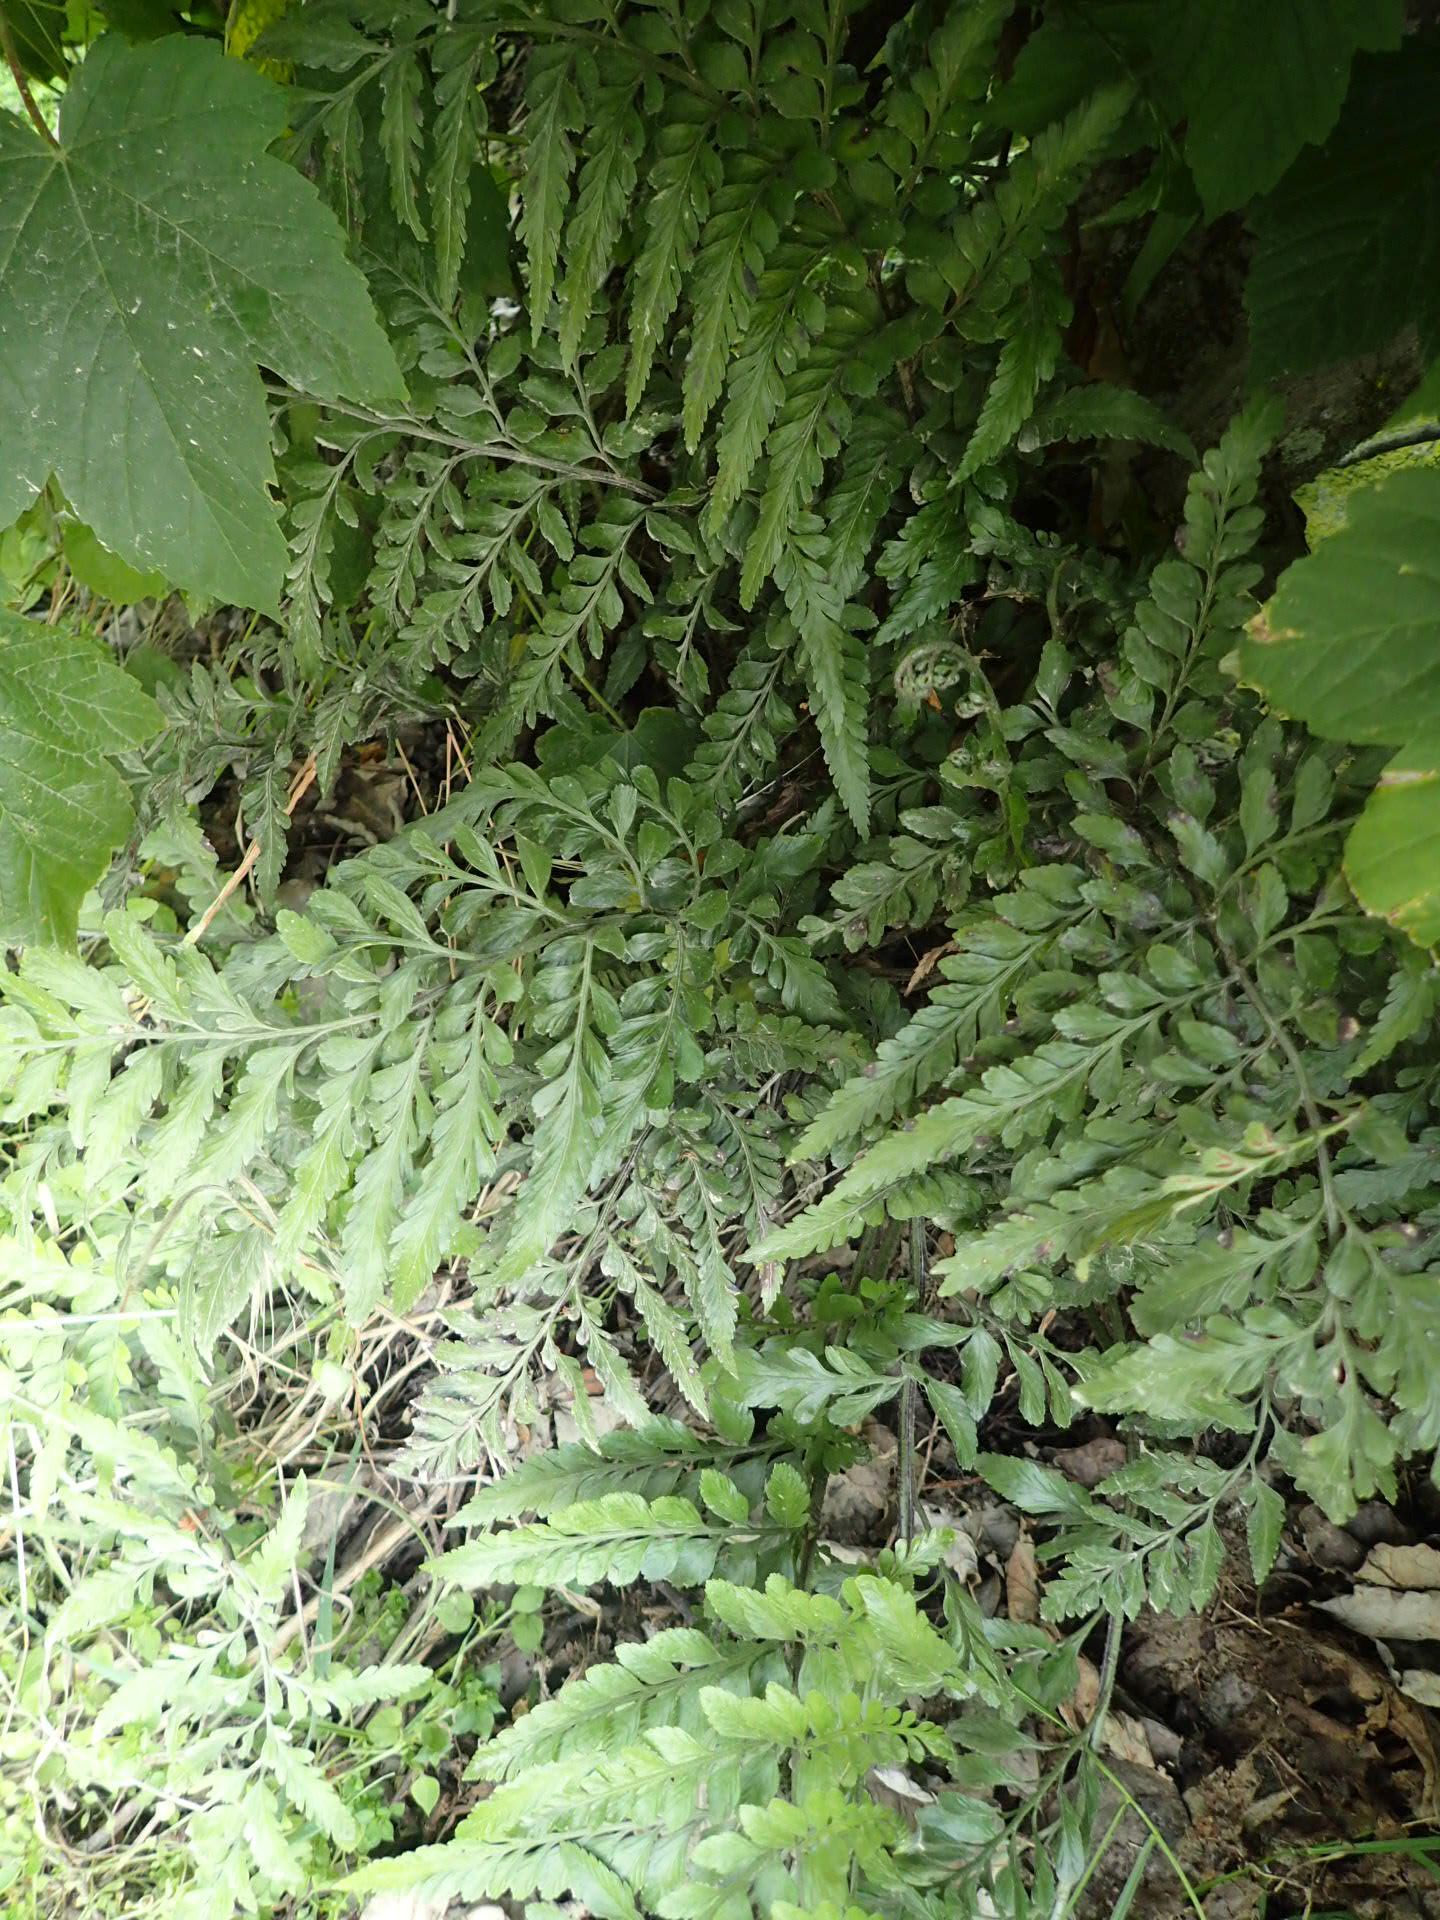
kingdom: Plantae
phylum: Tracheophyta
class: Polypodiopsida
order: Polypodiales
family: Aspleniaceae
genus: Asplenium
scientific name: Asplenium lyallii
